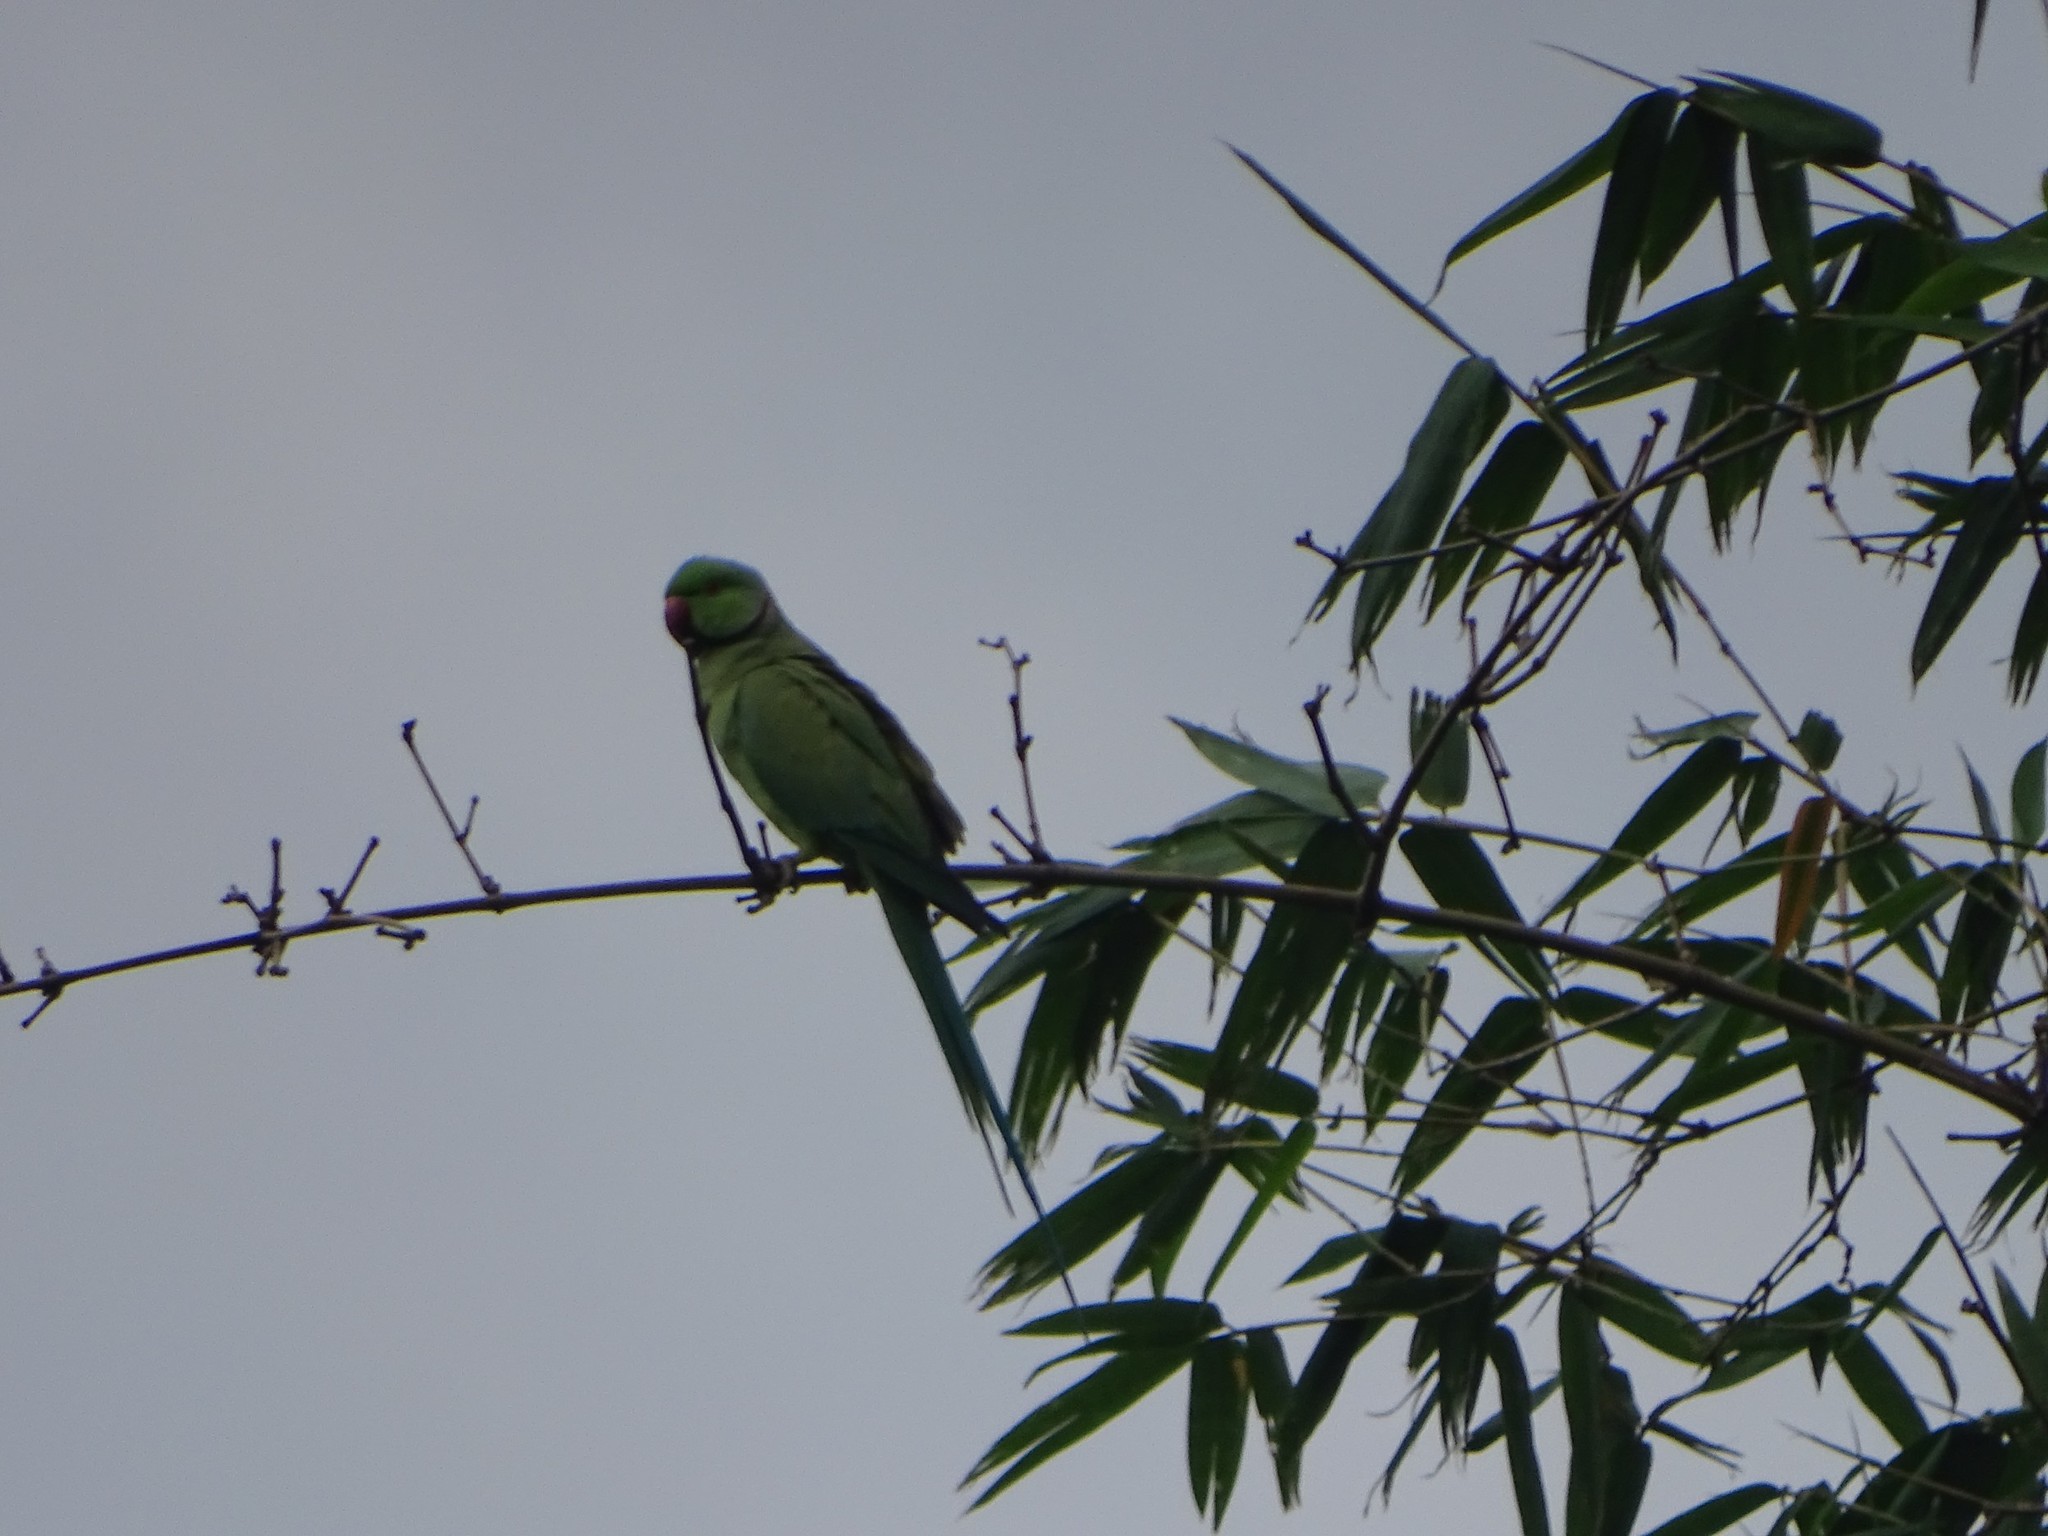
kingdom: Animalia
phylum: Chordata
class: Aves
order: Psittaciformes
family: Psittacidae
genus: Psittacula
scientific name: Psittacula krameri
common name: Rose-ringed parakeet
